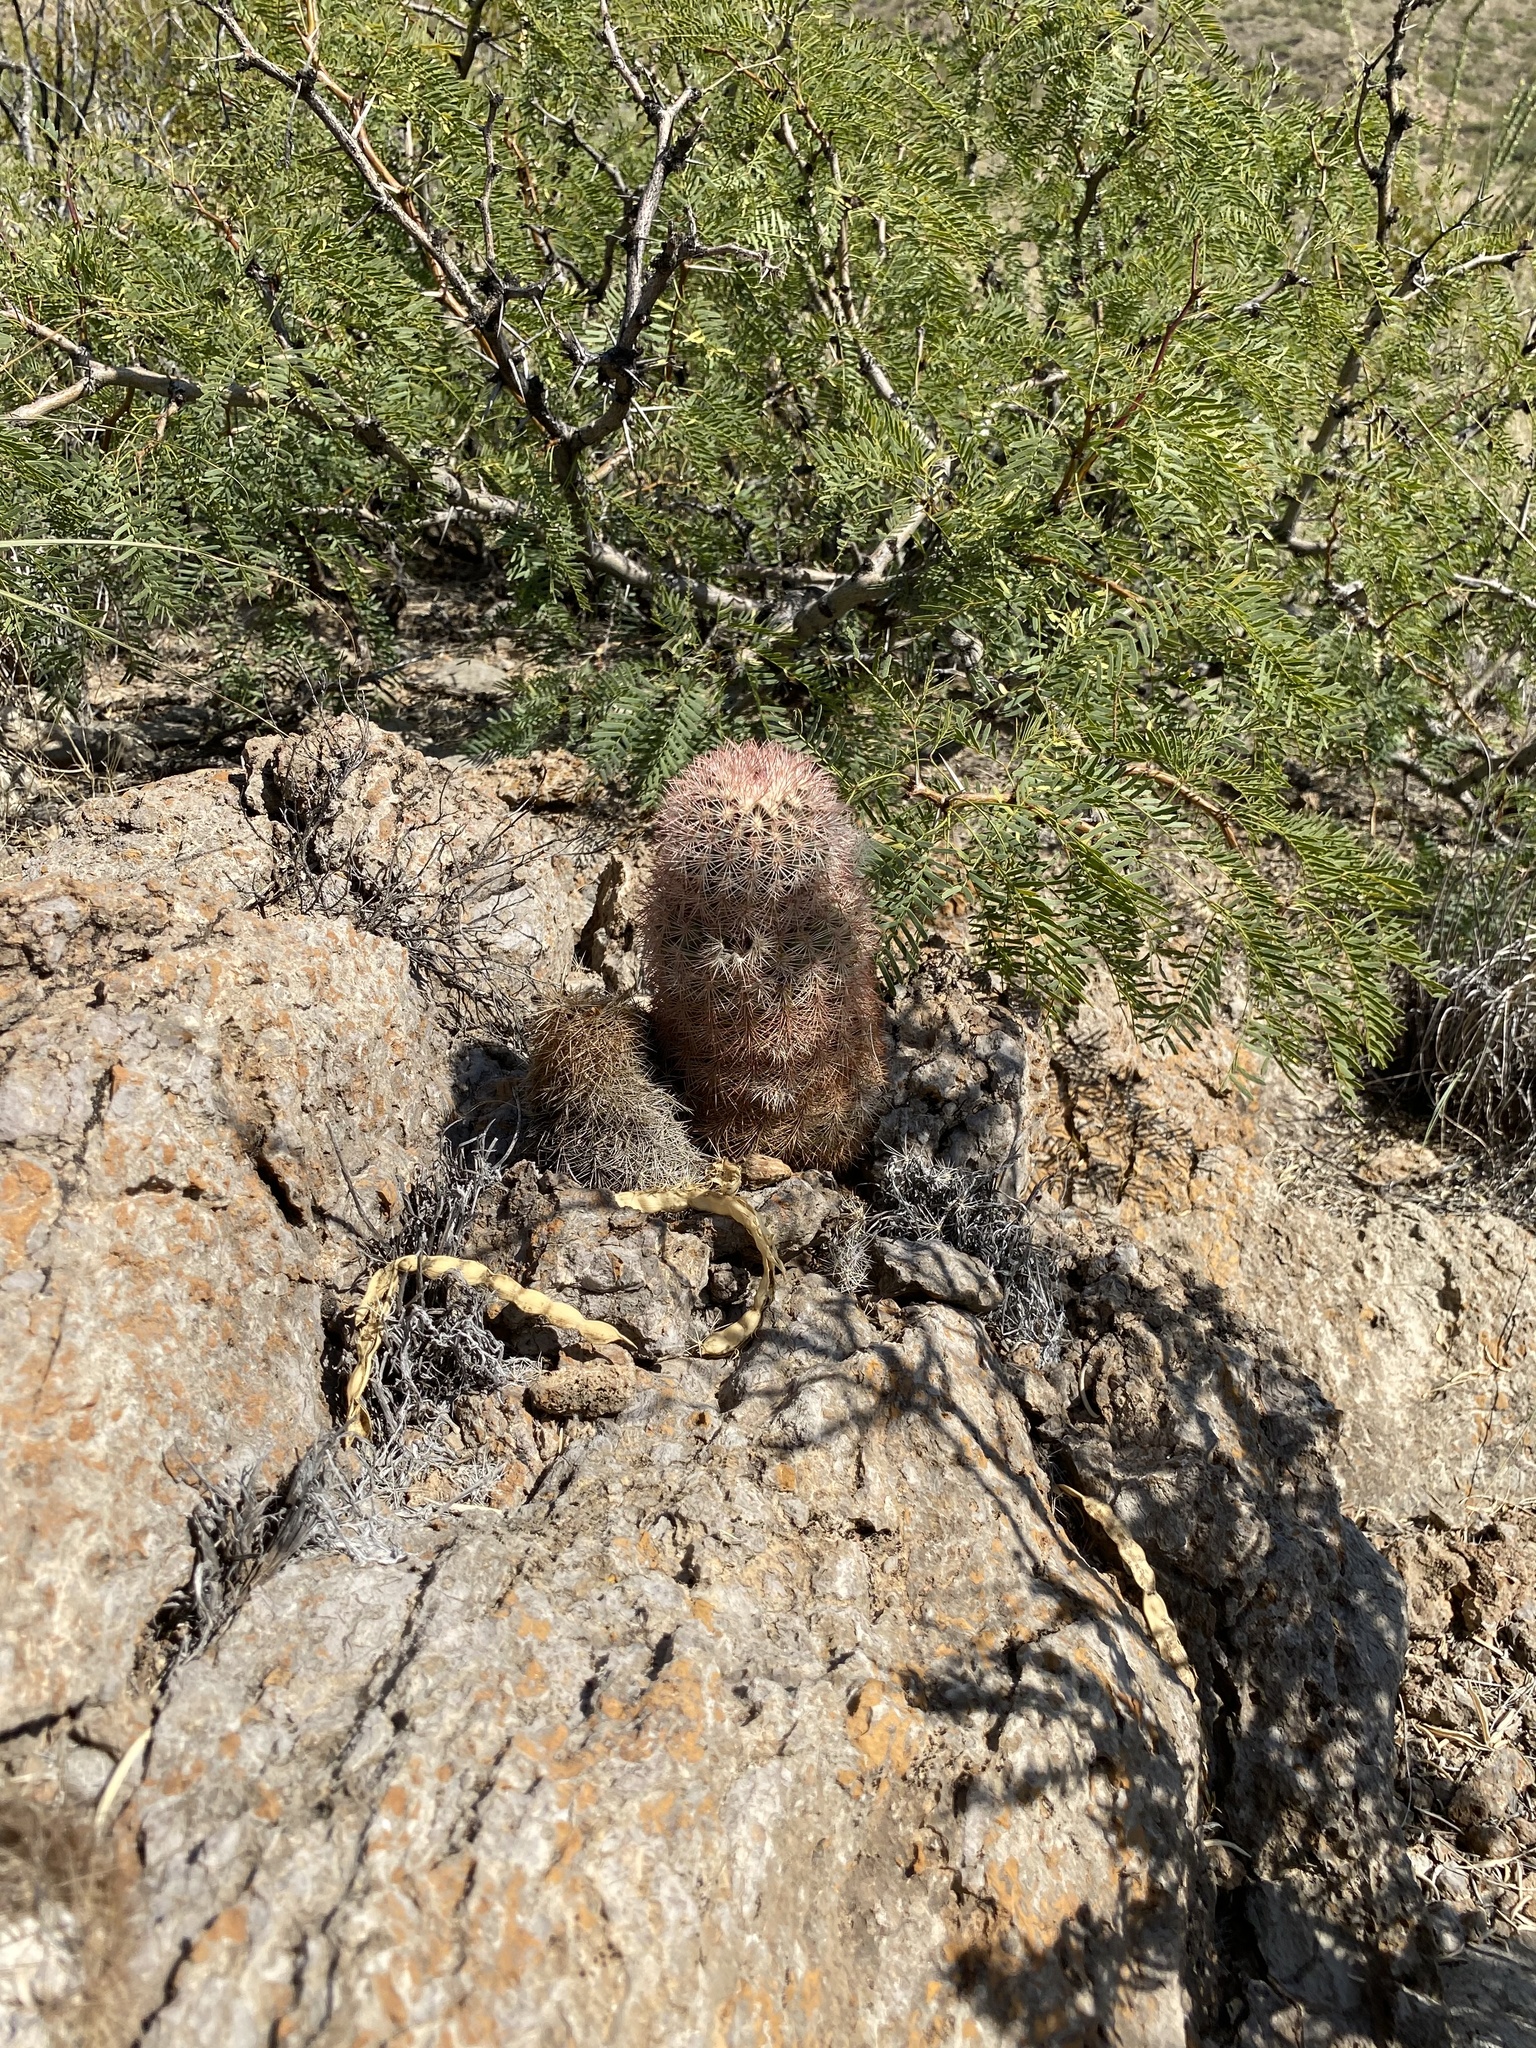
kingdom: Plantae
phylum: Tracheophyta
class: Magnoliopsida
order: Caryophyllales
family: Cactaceae
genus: Echinocereus
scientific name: Echinocereus dasyacanthus
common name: Spiny hedgehog cactus
